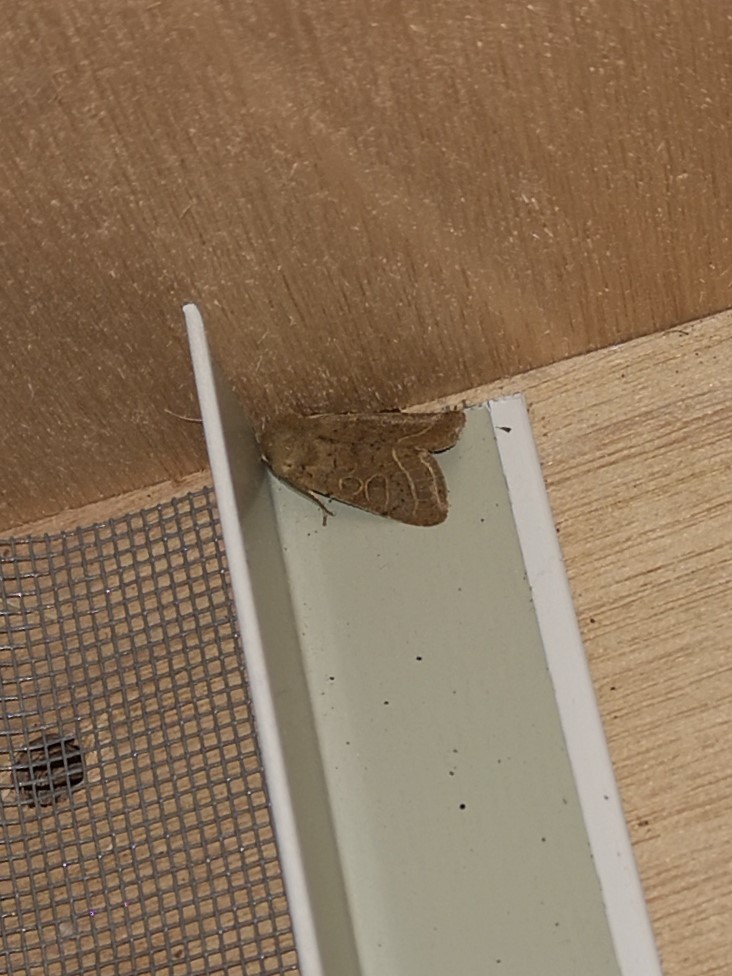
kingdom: Animalia
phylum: Arthropoda
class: Insecta
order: Lepidoptera
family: Noctuidae
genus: Orthosia
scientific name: Orthosia cerasi
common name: Common quaker
